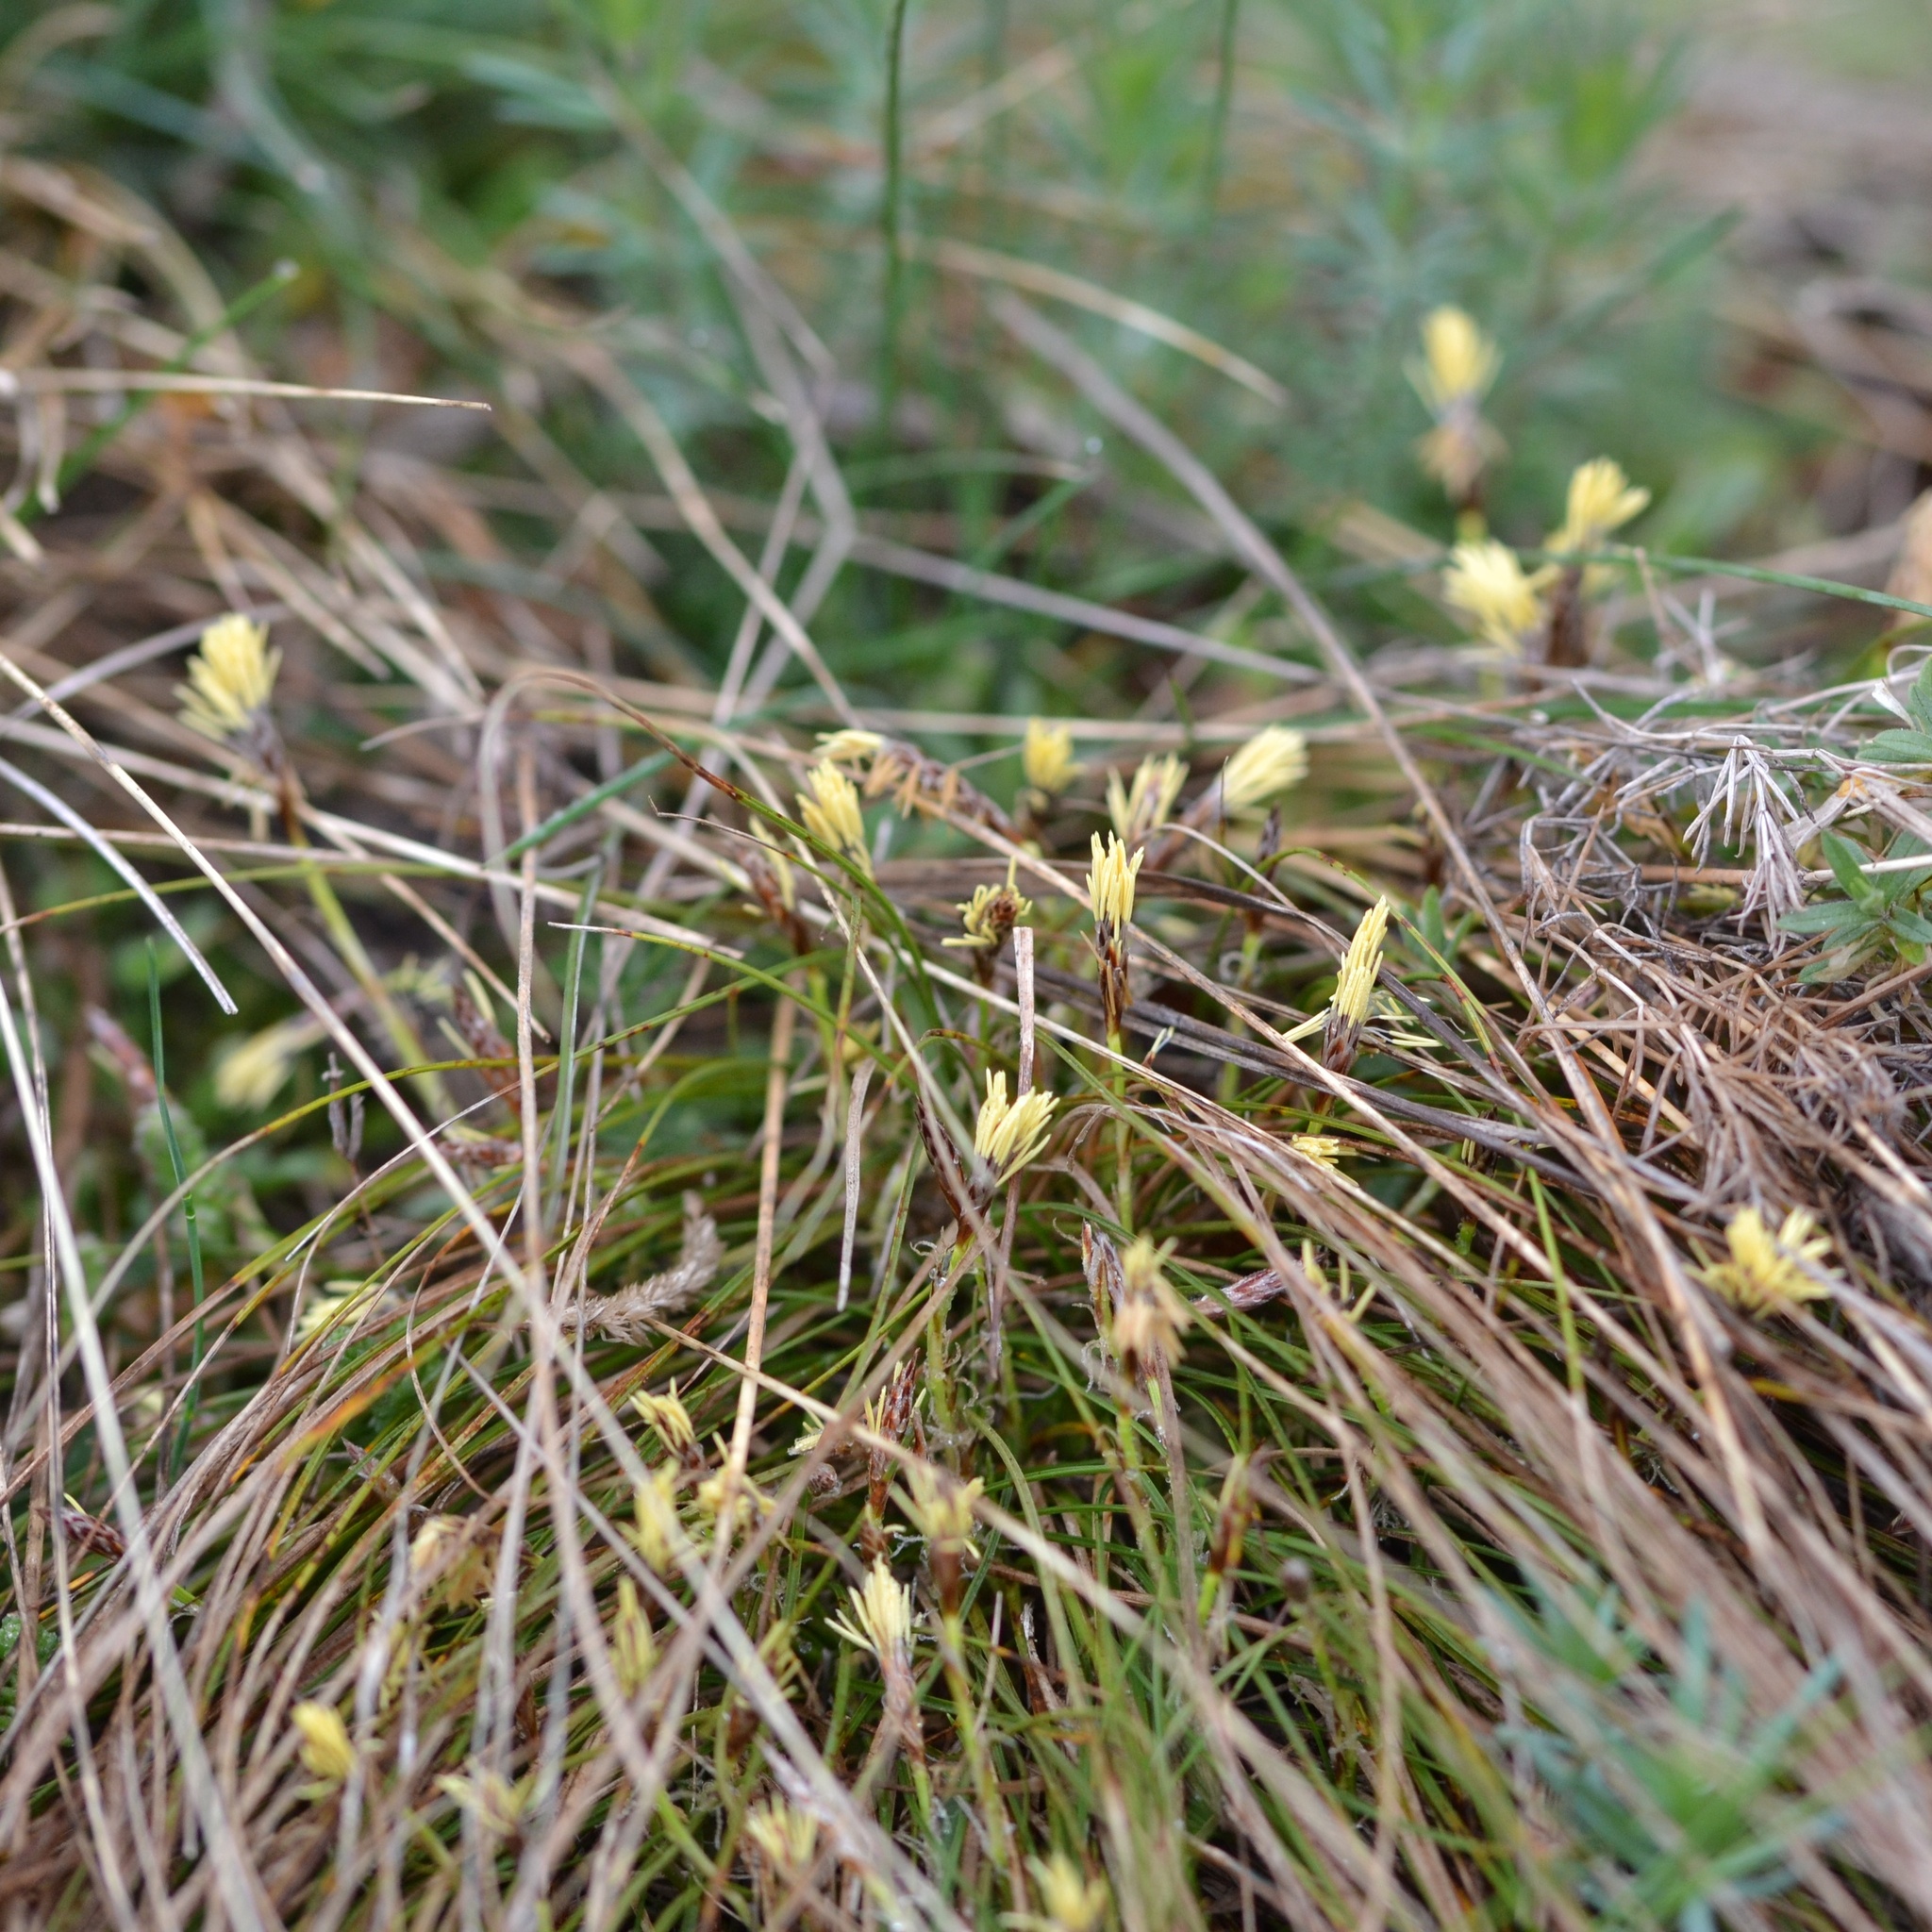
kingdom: Plantae
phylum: Tracheophyta
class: Liliopsida
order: Poales
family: Cyperaceae
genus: Carex
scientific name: Carex humilis
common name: Dwarf sedge
